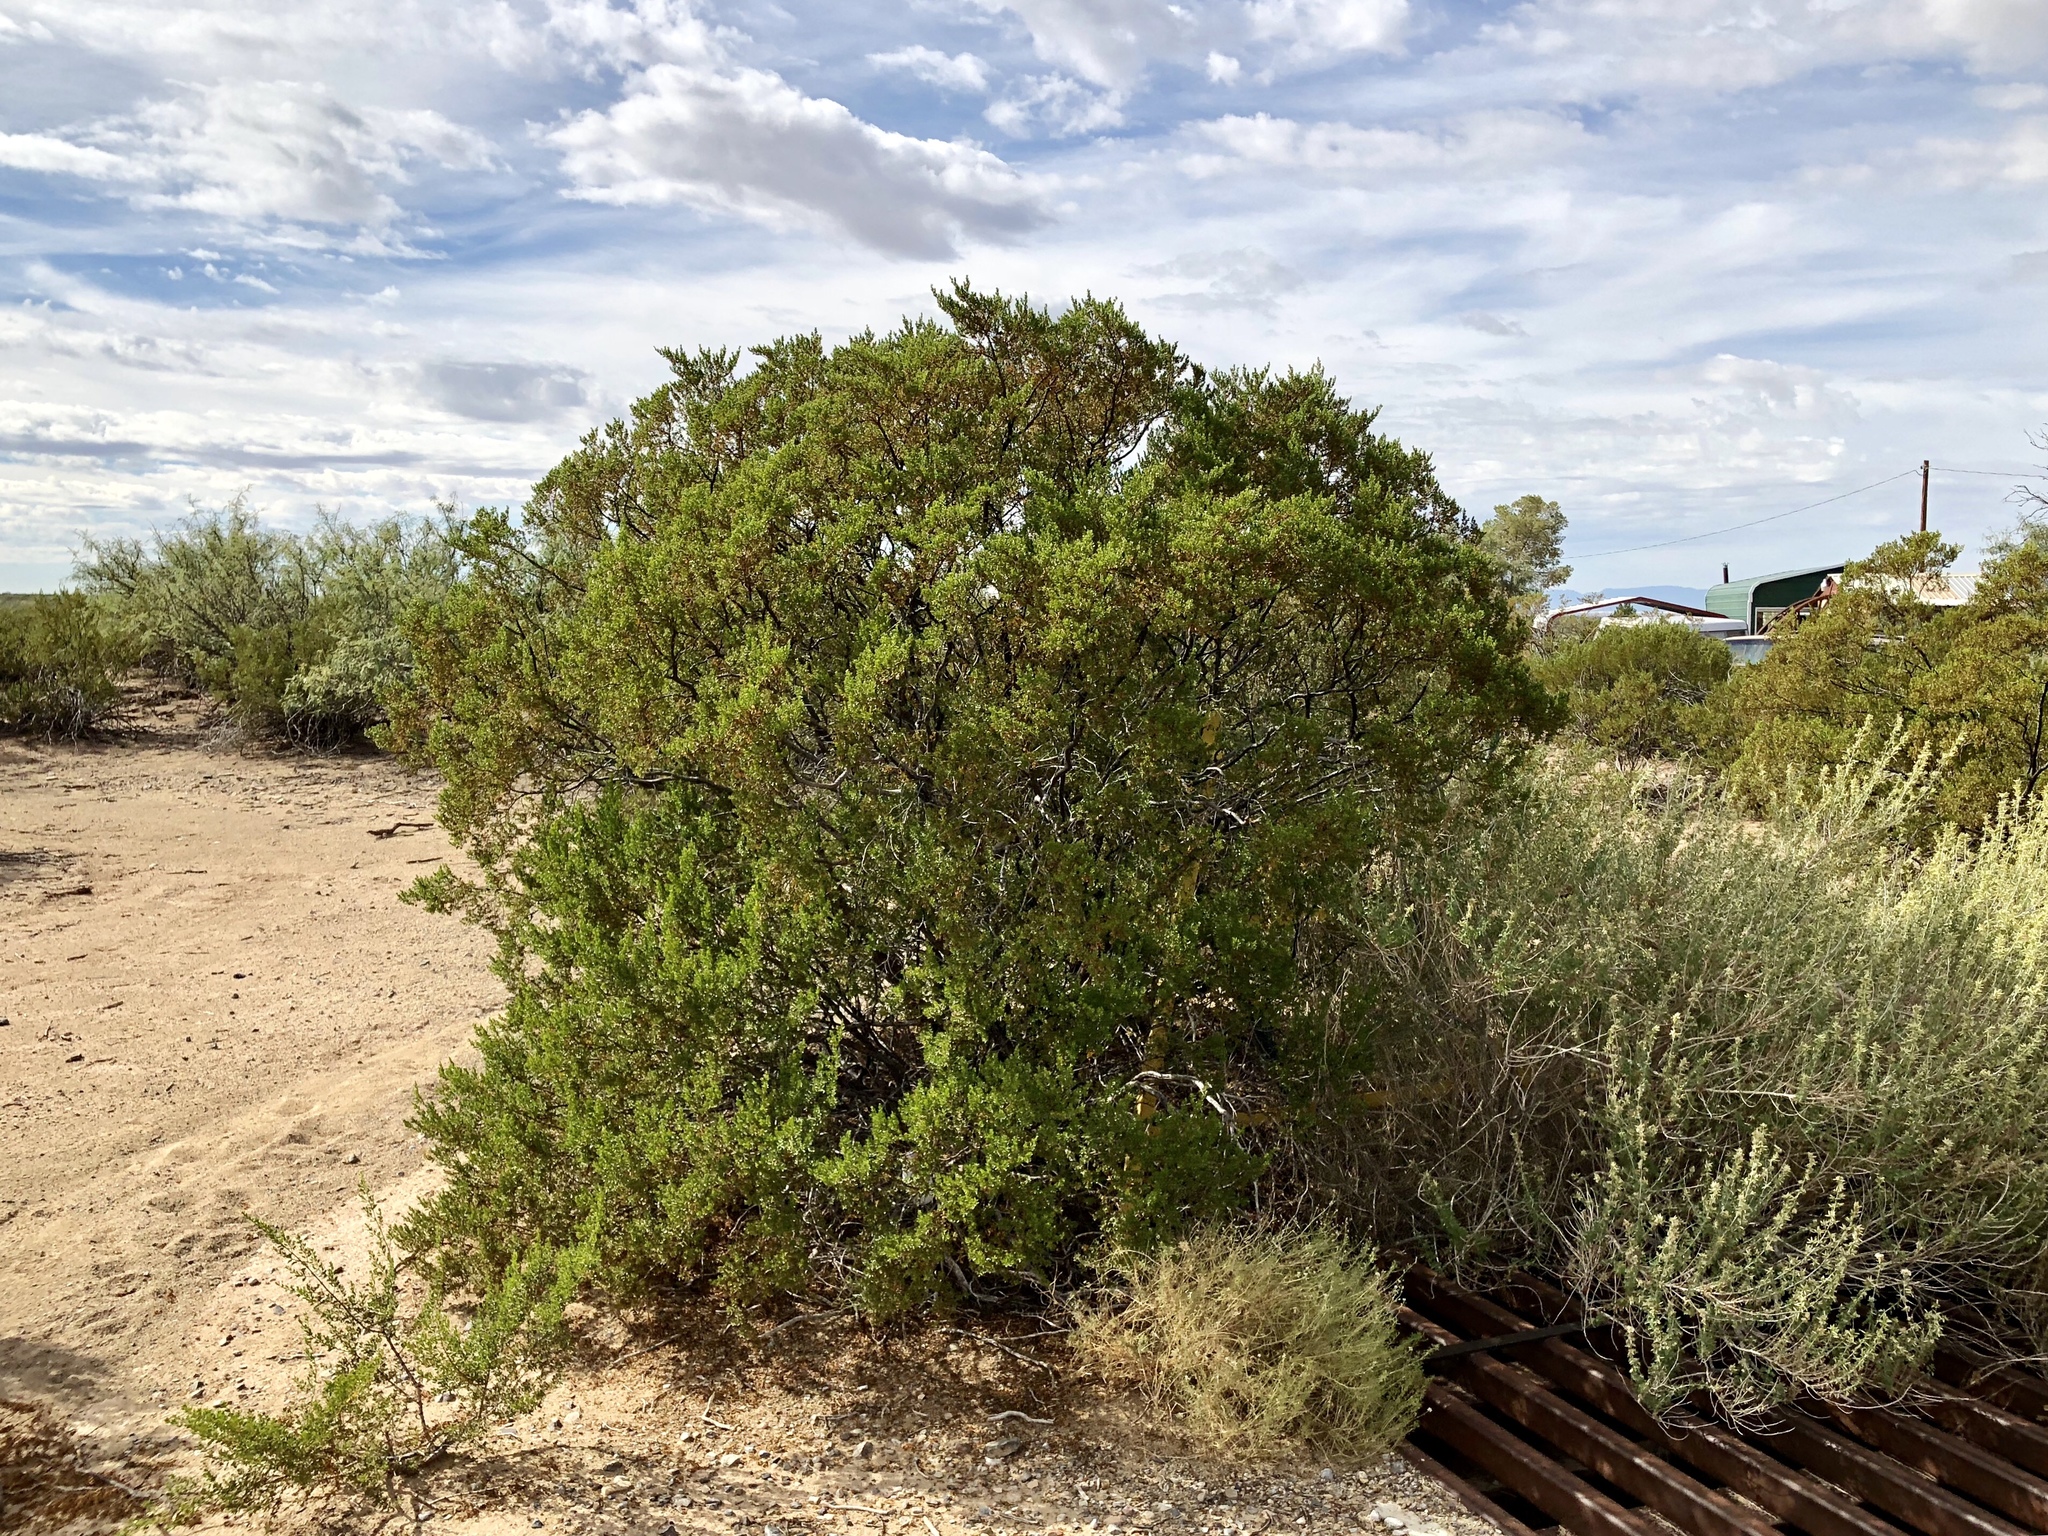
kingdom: Plantae
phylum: Tracheophyta
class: Magnoliopsida
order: Zygophyllales
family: Zygophyllaceae
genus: Larrea
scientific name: Larrea tridentata
